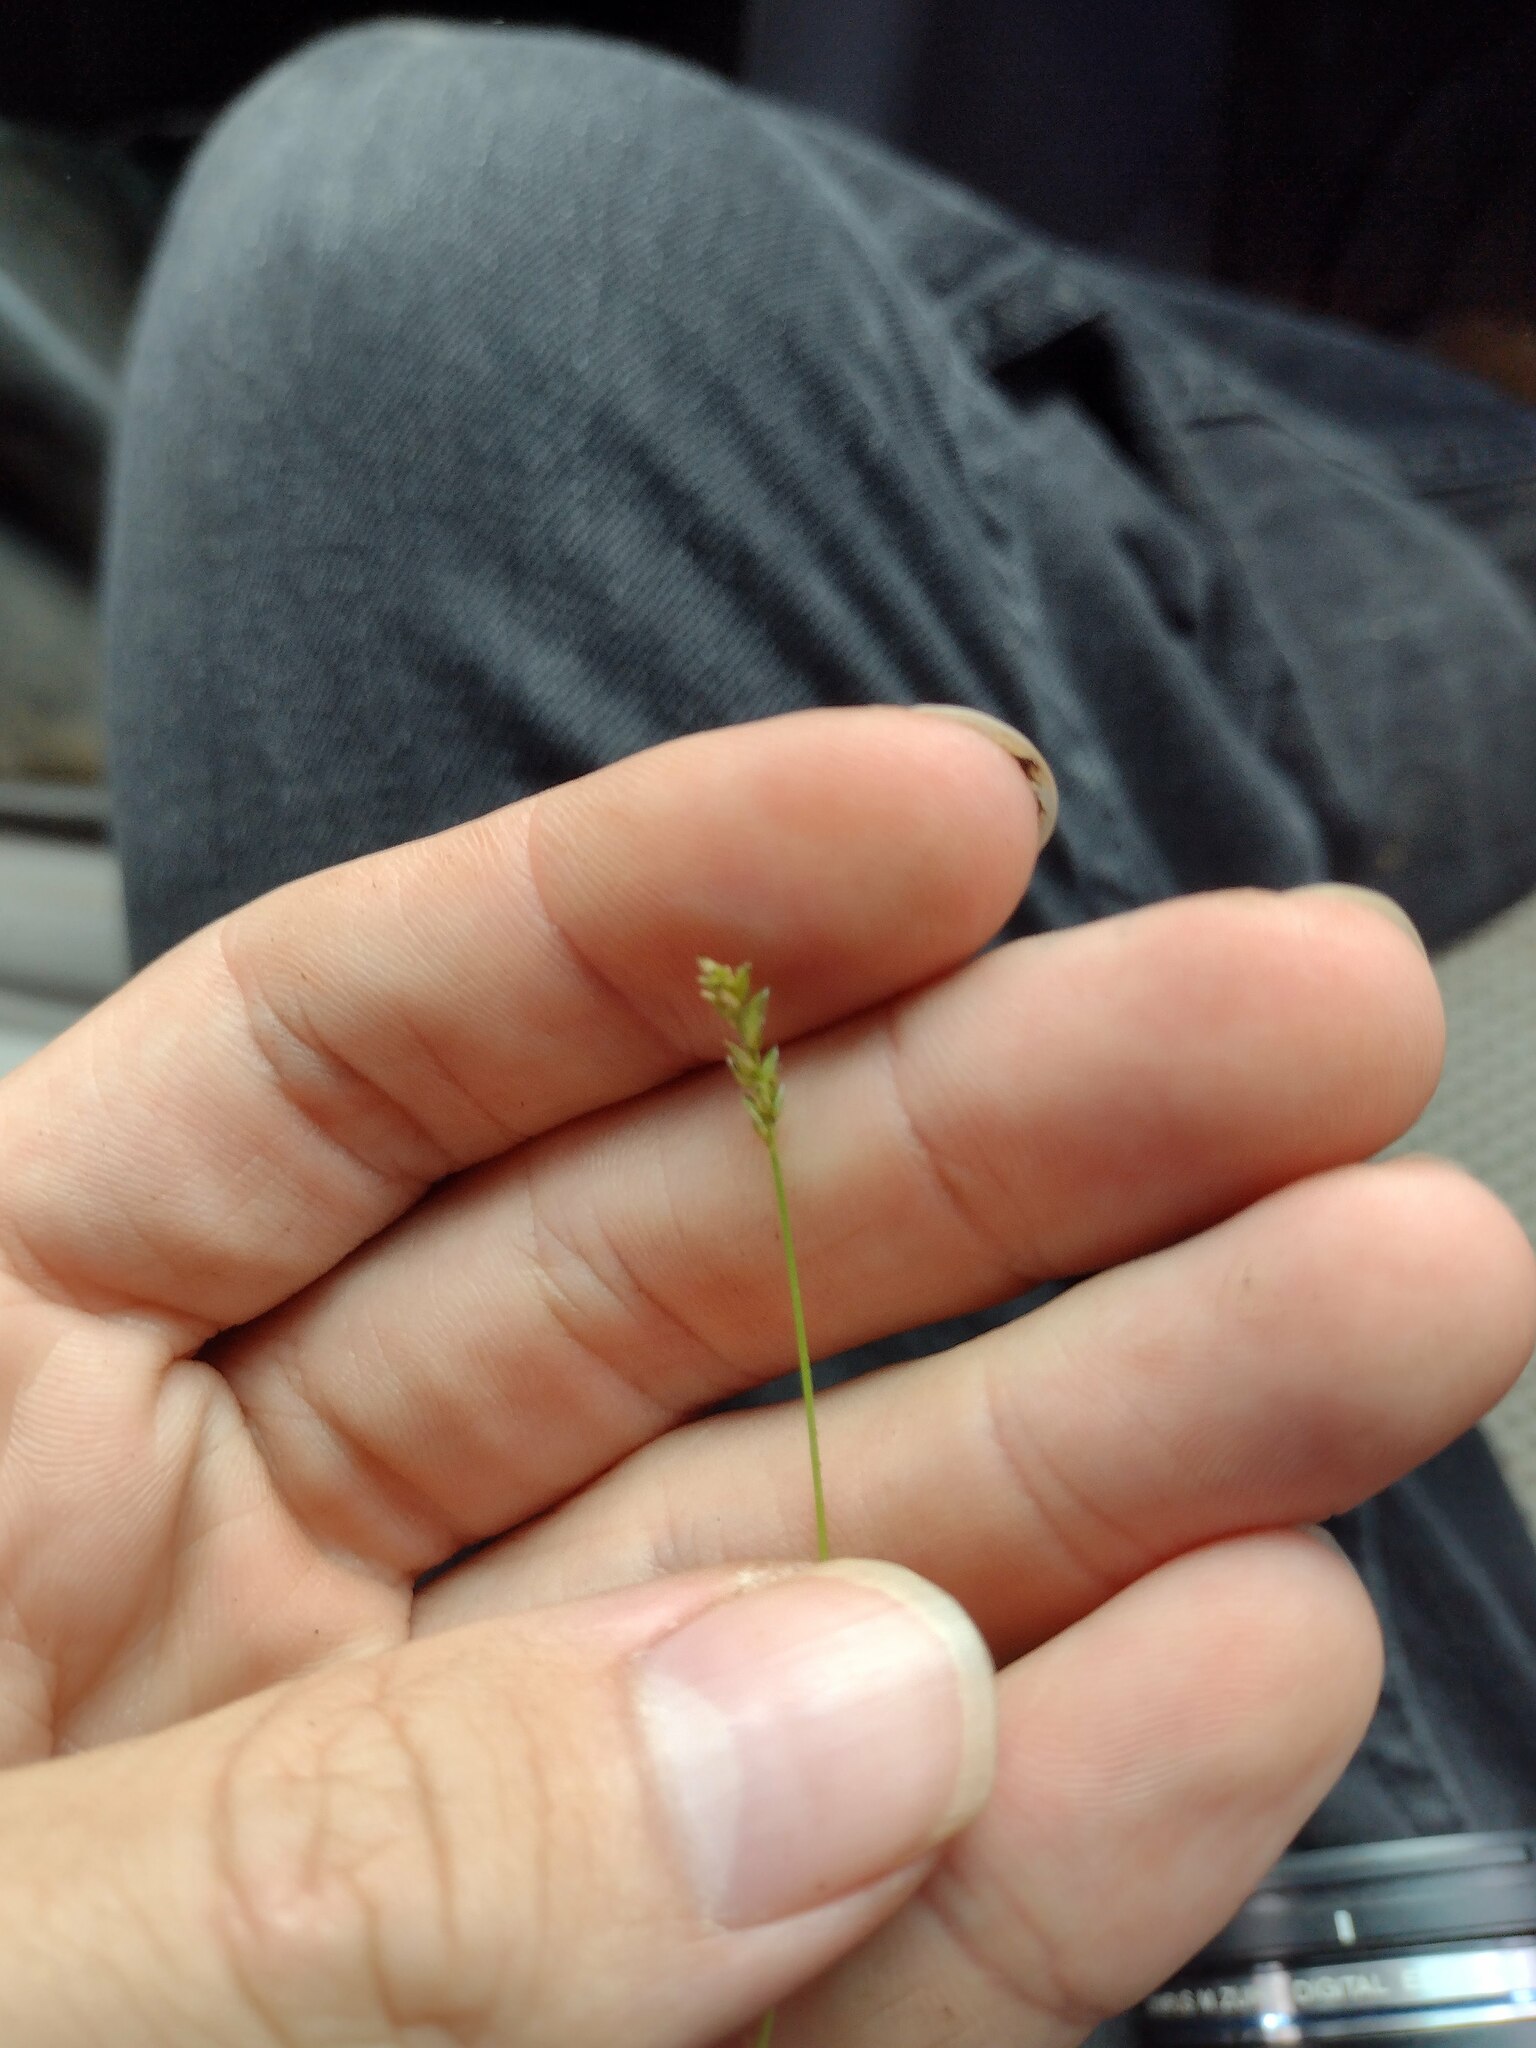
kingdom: Plantae
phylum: Tracheophyta
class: Liliopsida
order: Poales
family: Poaceae
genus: Sacciolepis
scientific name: Sacciolepis indica
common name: Glenwoodgrass
